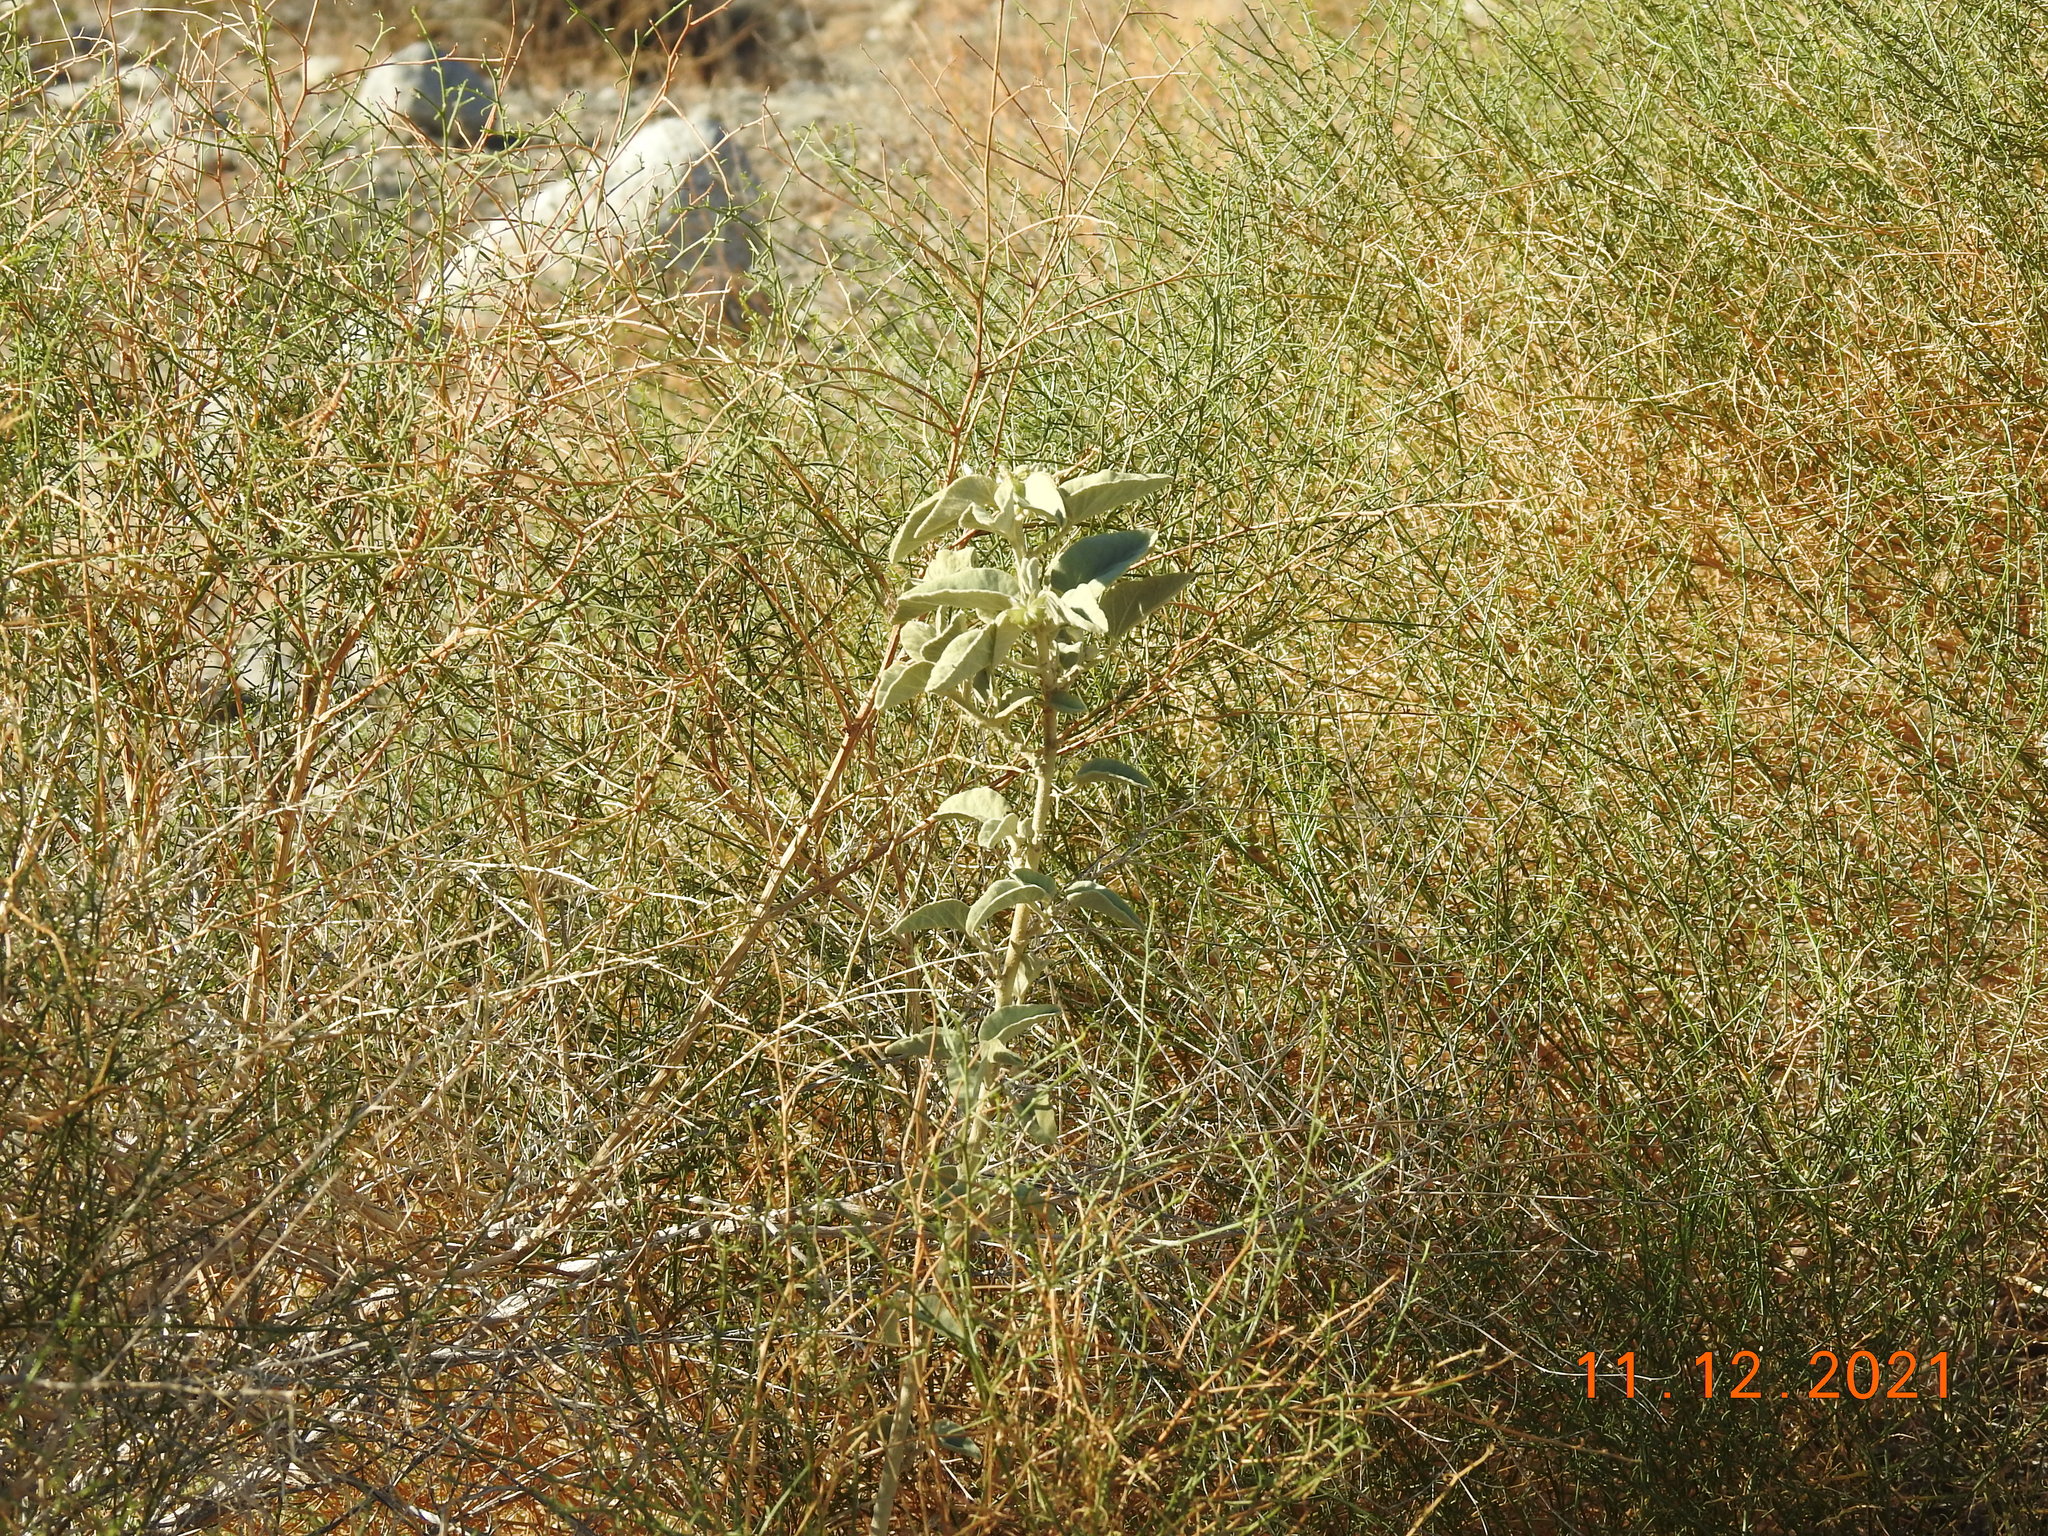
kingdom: Plantae
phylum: Tracheophyta
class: Magnoliopsida
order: Malvales
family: Malvaceae
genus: Horsfordia
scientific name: Horsfordia newberryi
